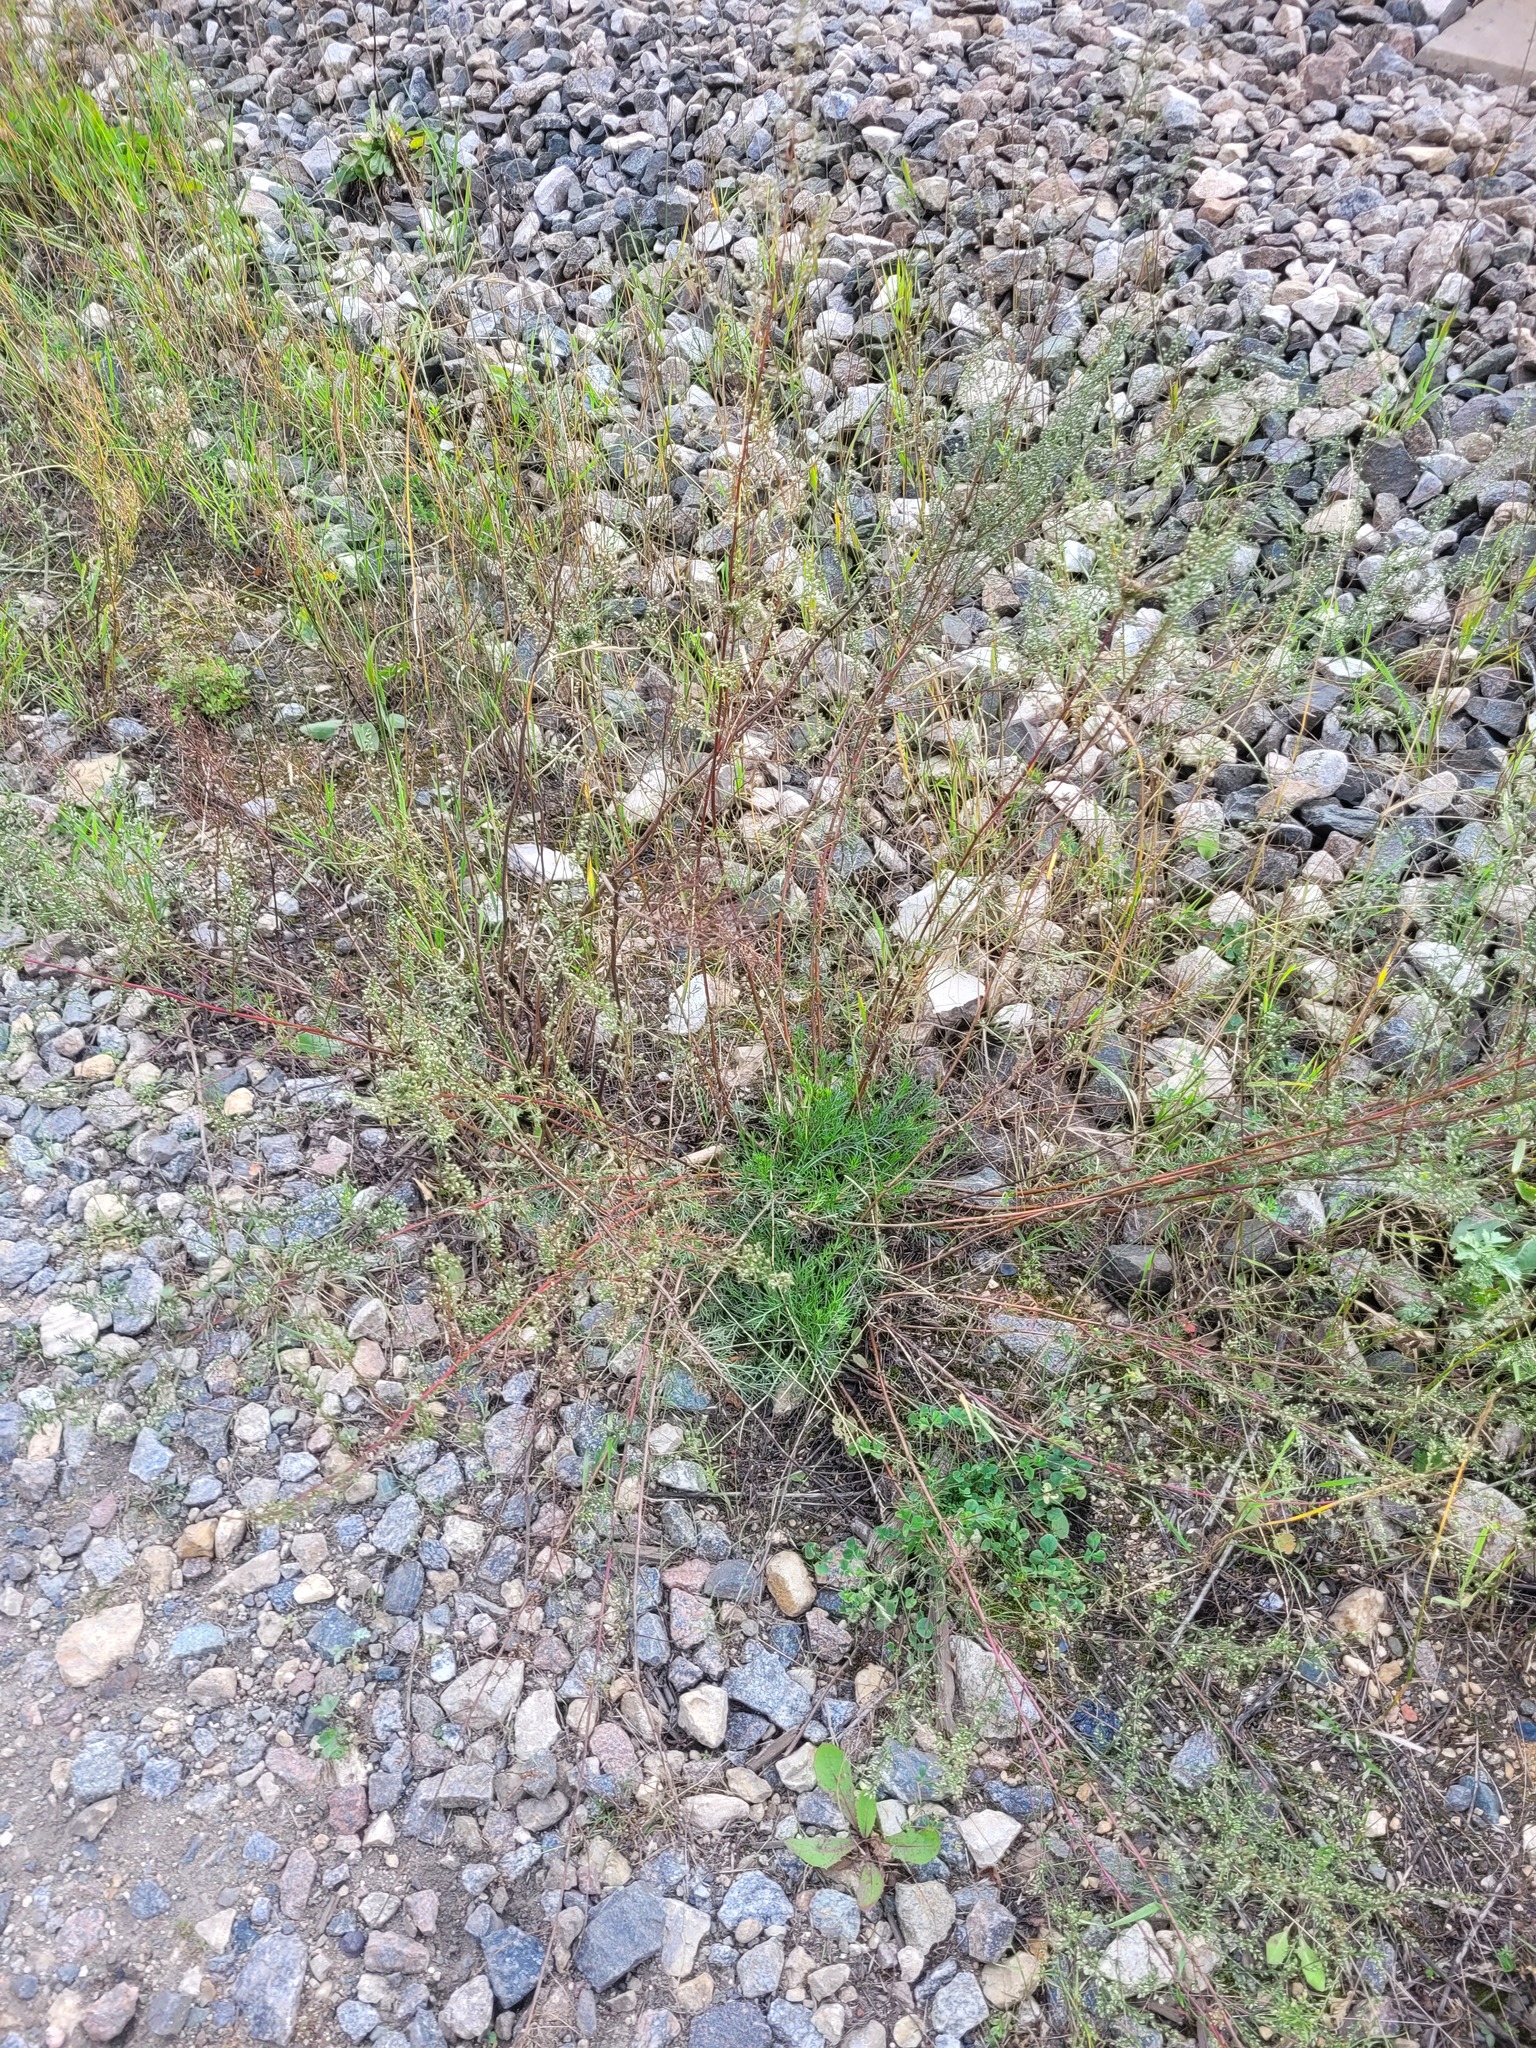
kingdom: Plantae
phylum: Tracheophyta
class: Magnoliopsida
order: Asterales
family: Asteraceae
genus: Artemisia
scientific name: Artemisia campestris
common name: Field wormwood
